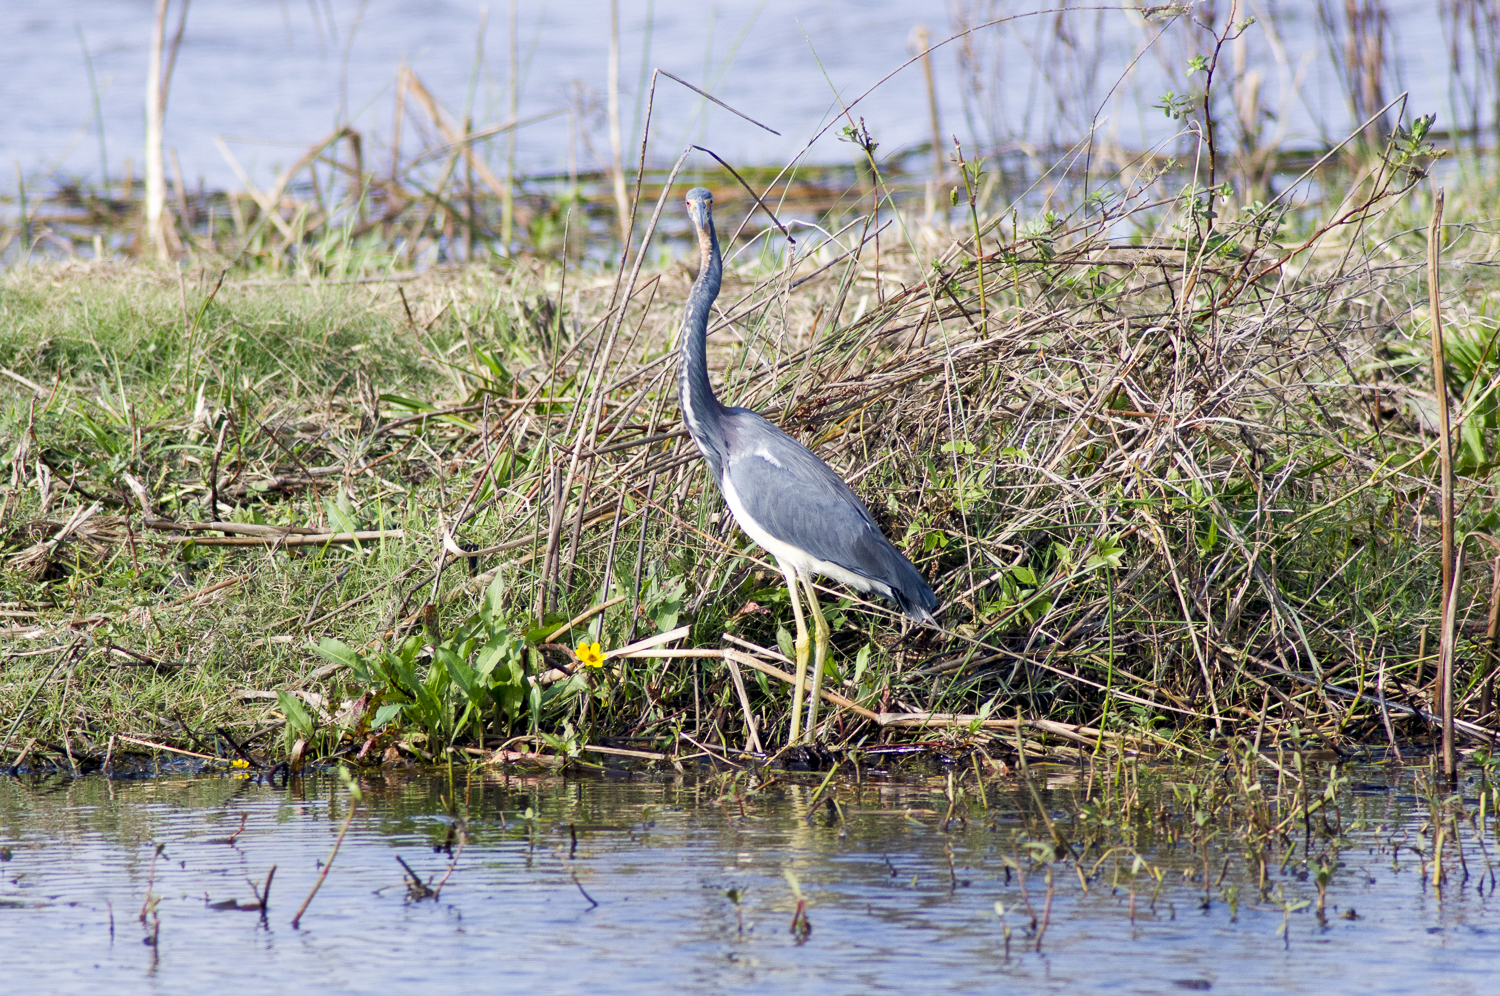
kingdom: Animalia
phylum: Chordata
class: Aves
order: Pelecaniformes
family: Ardeidae
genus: Egretta
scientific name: Egretta tricolor
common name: Tricolored heron
